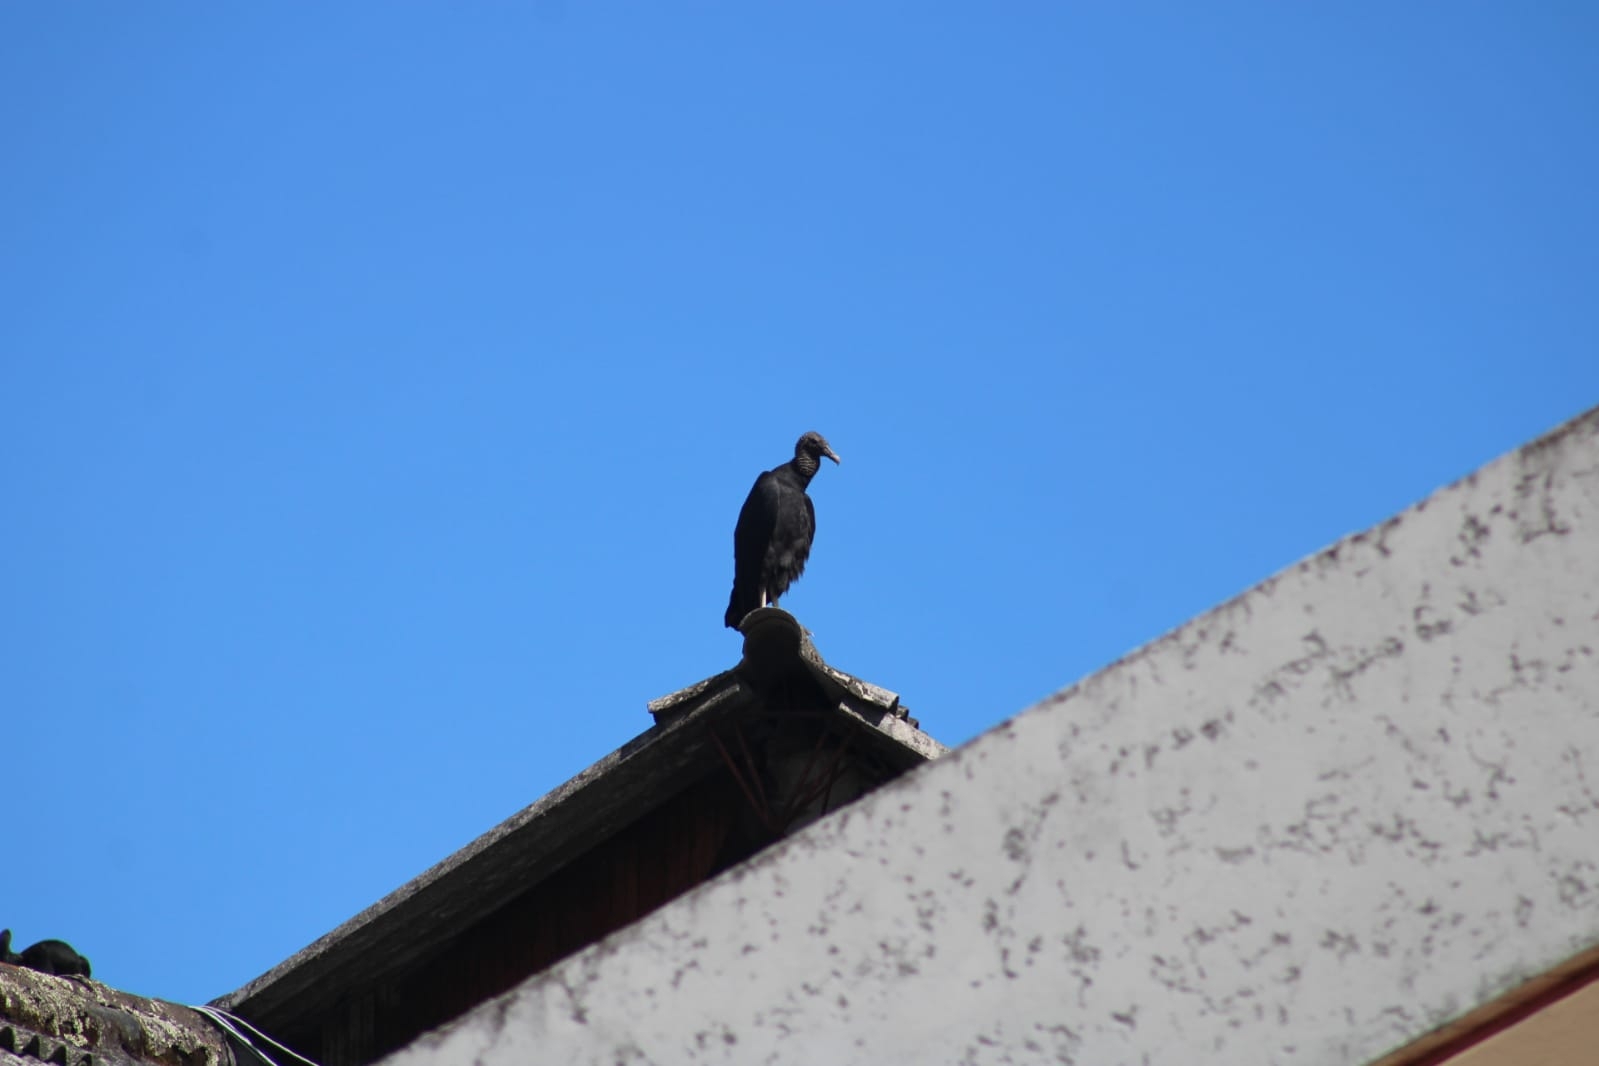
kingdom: Animalia
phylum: Chordata
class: Aves
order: Accipitriformes
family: Cathartidae
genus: Coragyps
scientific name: Coragyps atratus
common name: Black vulture
